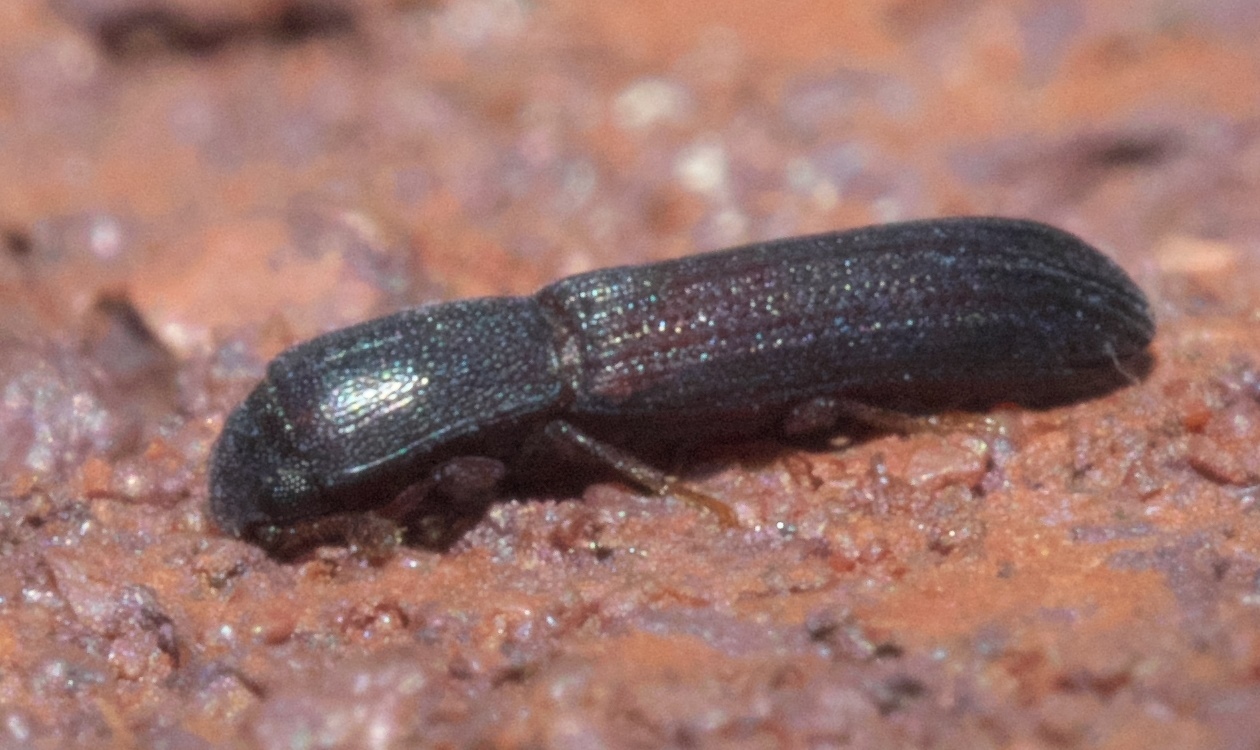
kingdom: Animalia
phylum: Arthropoda
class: Insecta
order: Coleoptera
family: Zopheridae
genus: Colydium
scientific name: Colydium lineola
